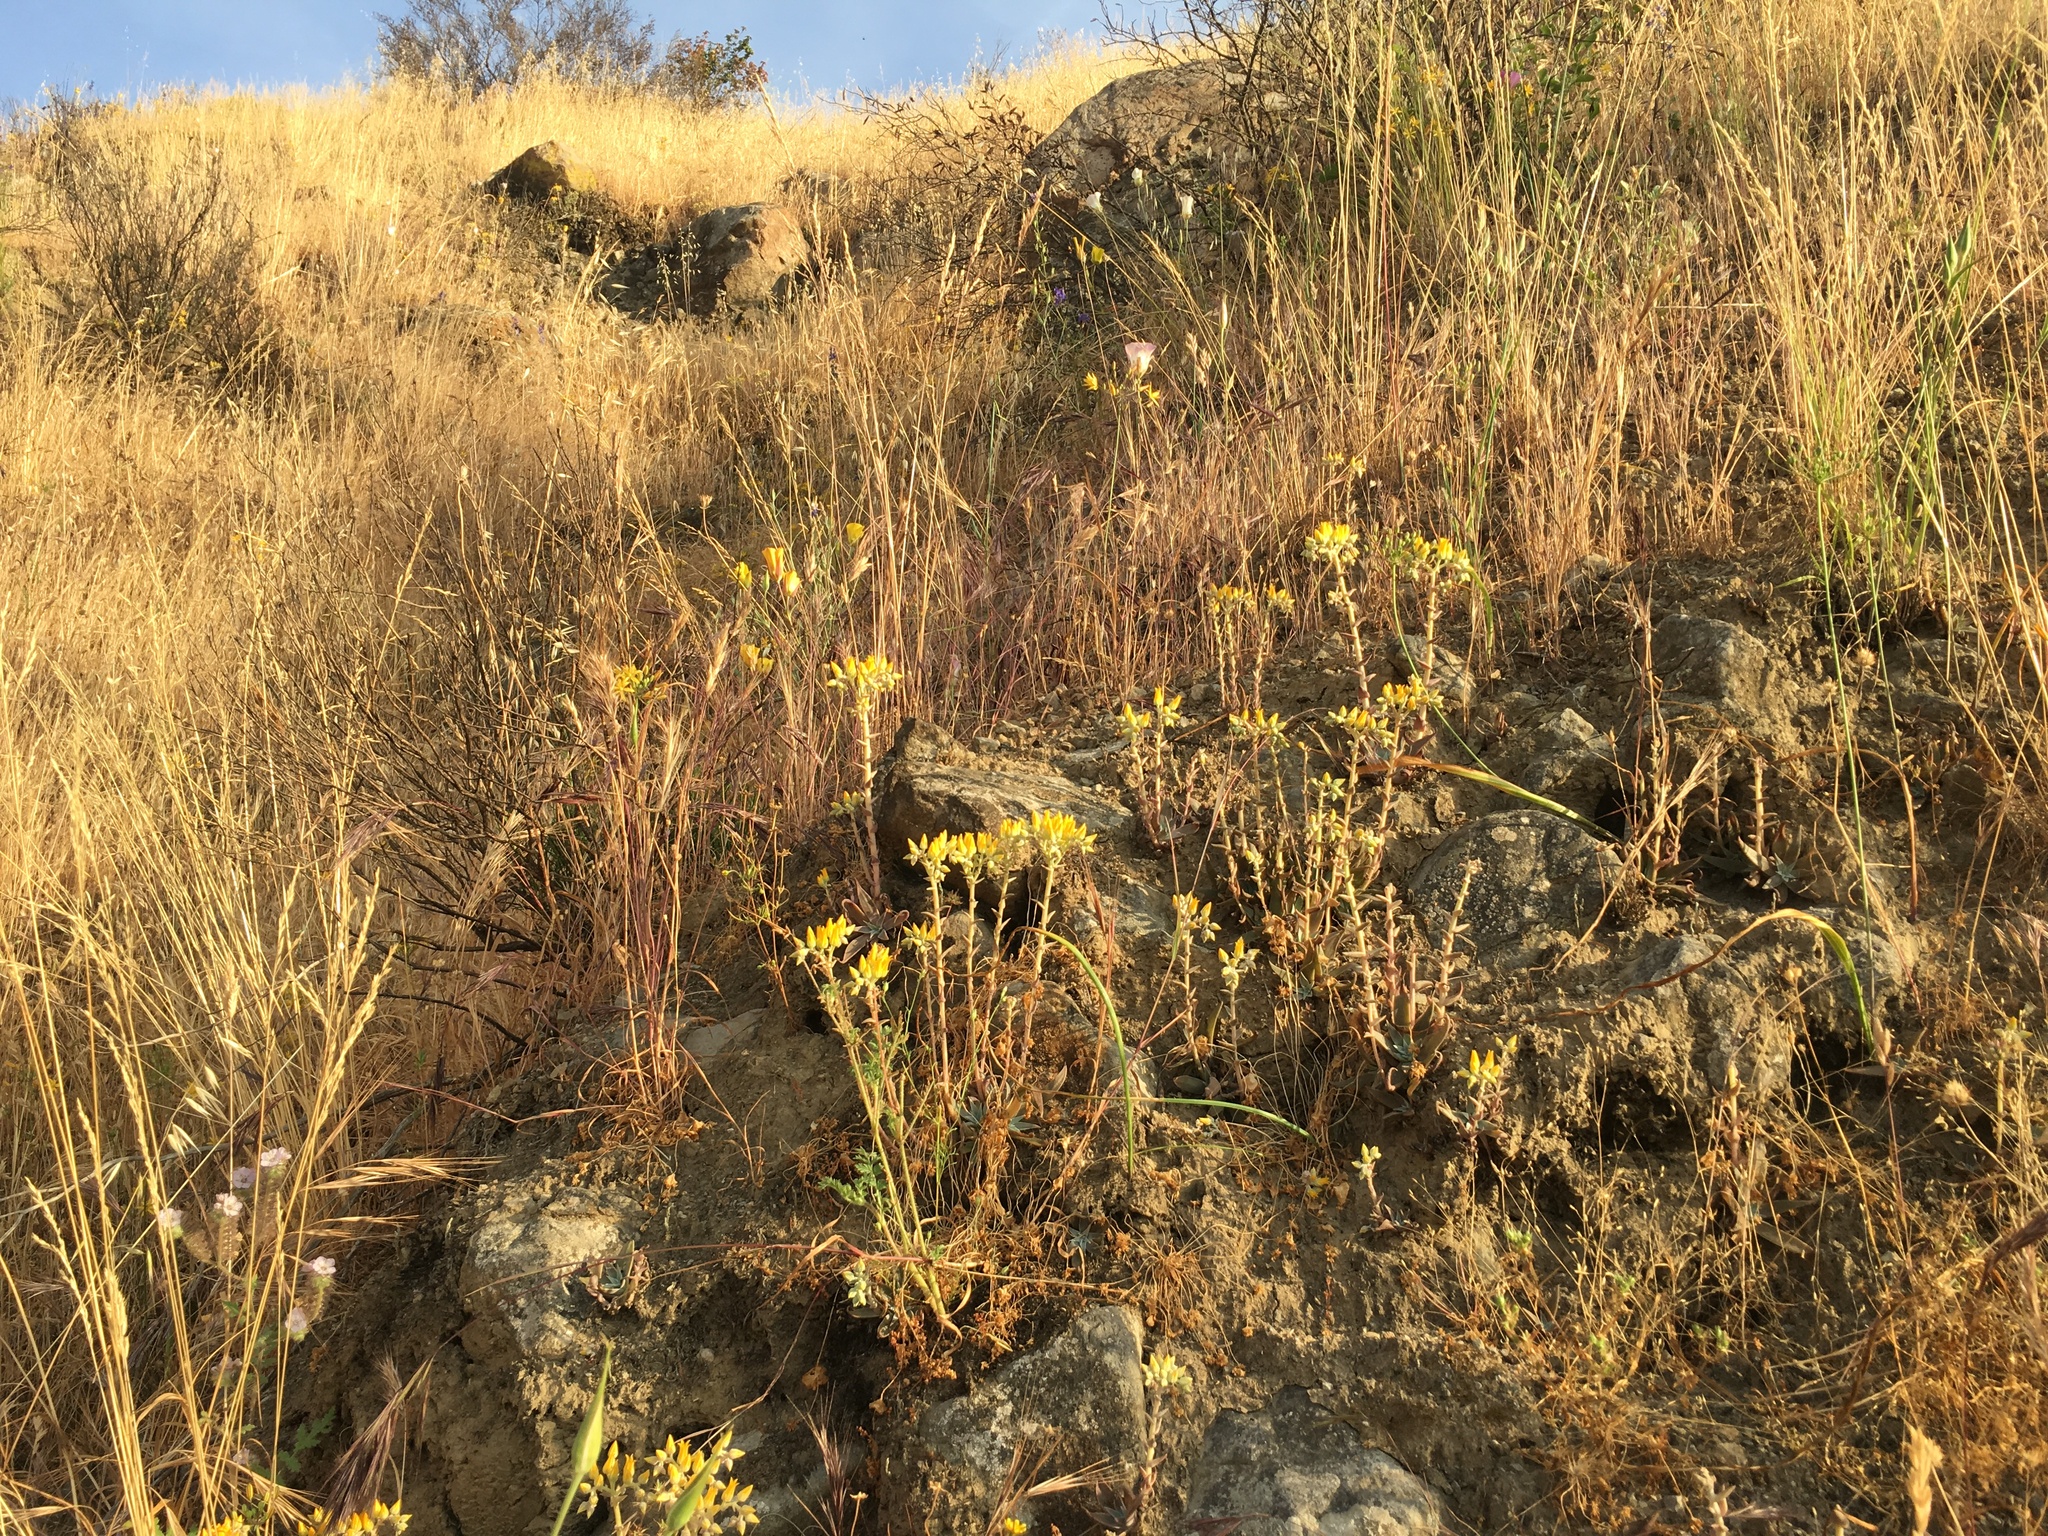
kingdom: Plantae
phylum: Tracheophyta
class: Magnoliopsida
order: Saxifragales
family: Crassulaceae
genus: Dudleya
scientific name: Dudleya cymosa
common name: Canyon dudleya
